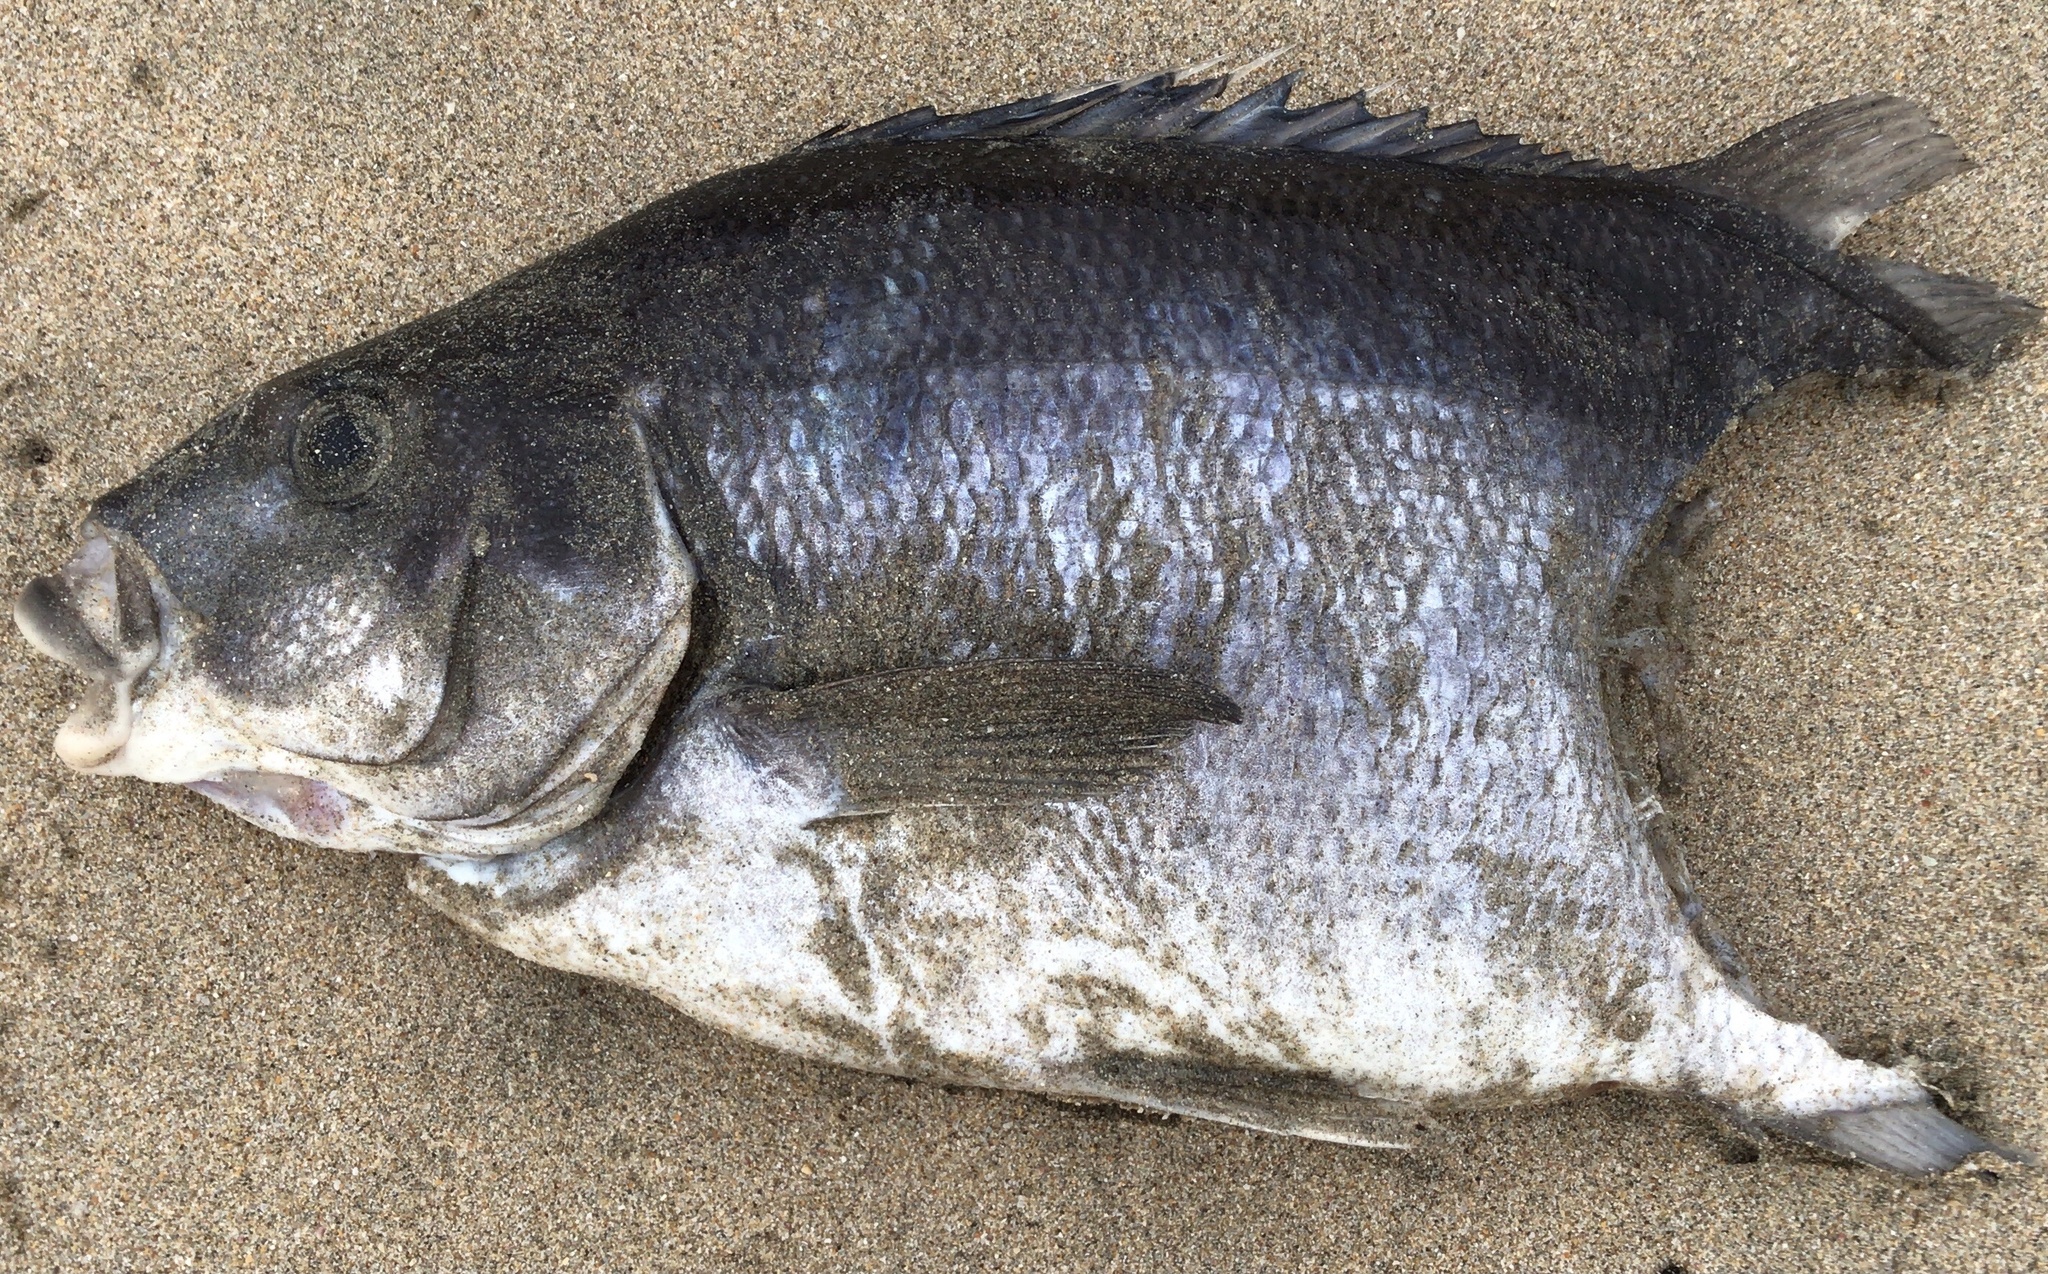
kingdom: Animalia
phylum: Chordata
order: Perciformes
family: Latridae
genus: Latridopsis
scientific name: Latridopsis ciliaris
